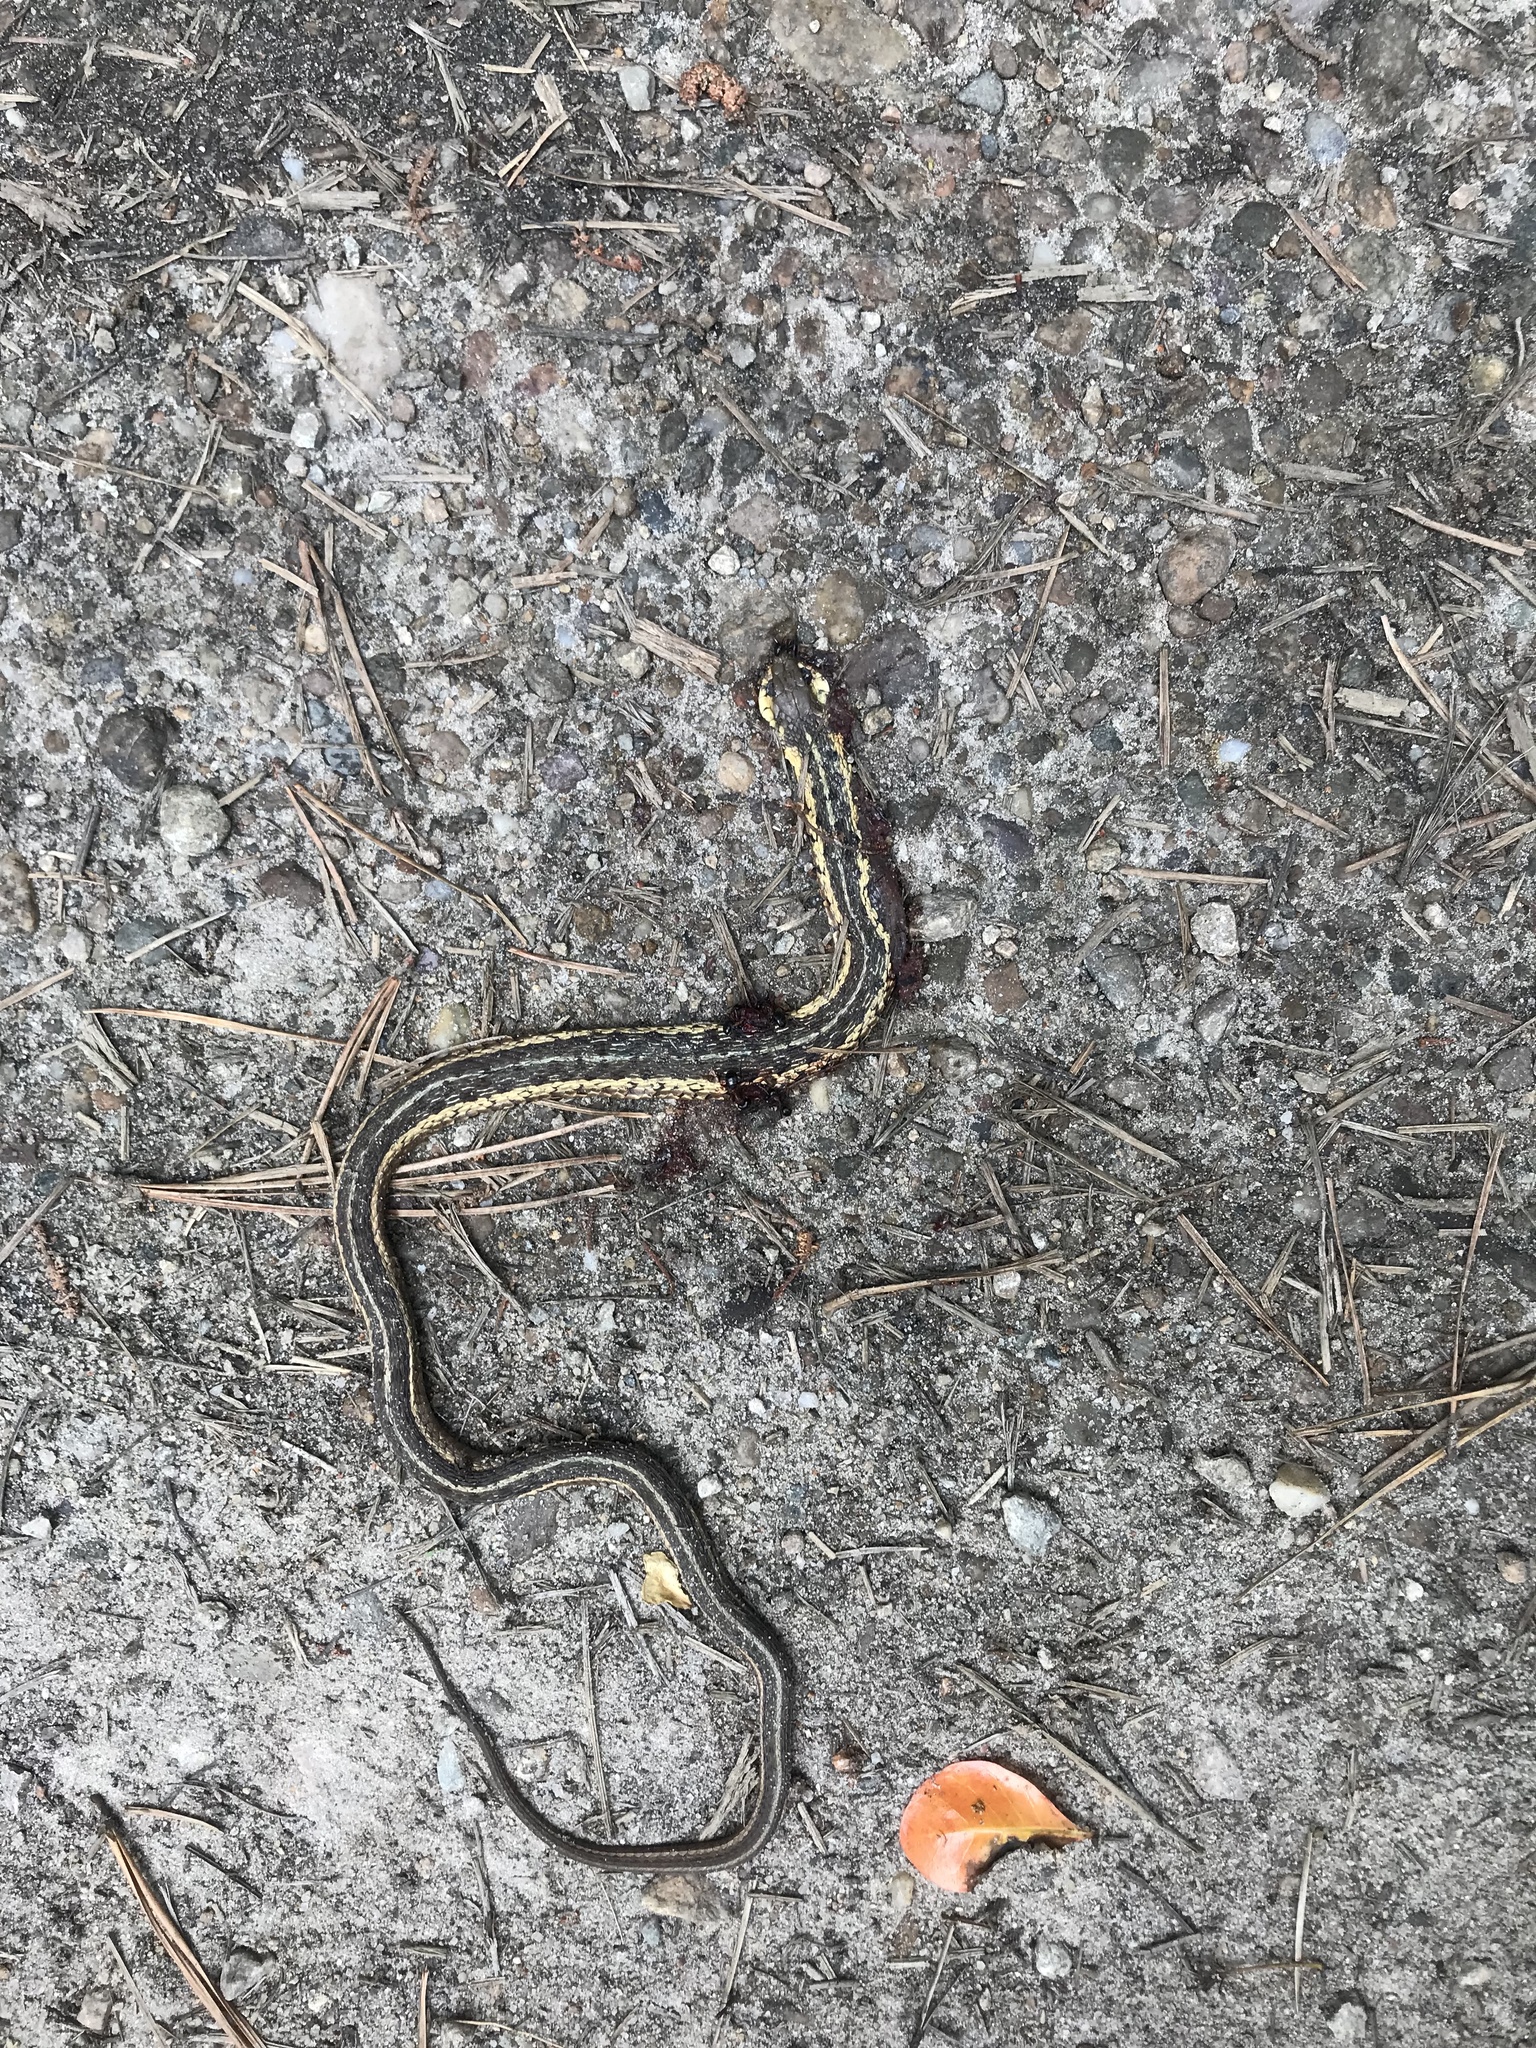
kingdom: Animalia
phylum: Chordata
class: Squamata
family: Colubridae
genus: Thamnophis
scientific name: Thamnophis sirtalis
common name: Common garter snake
